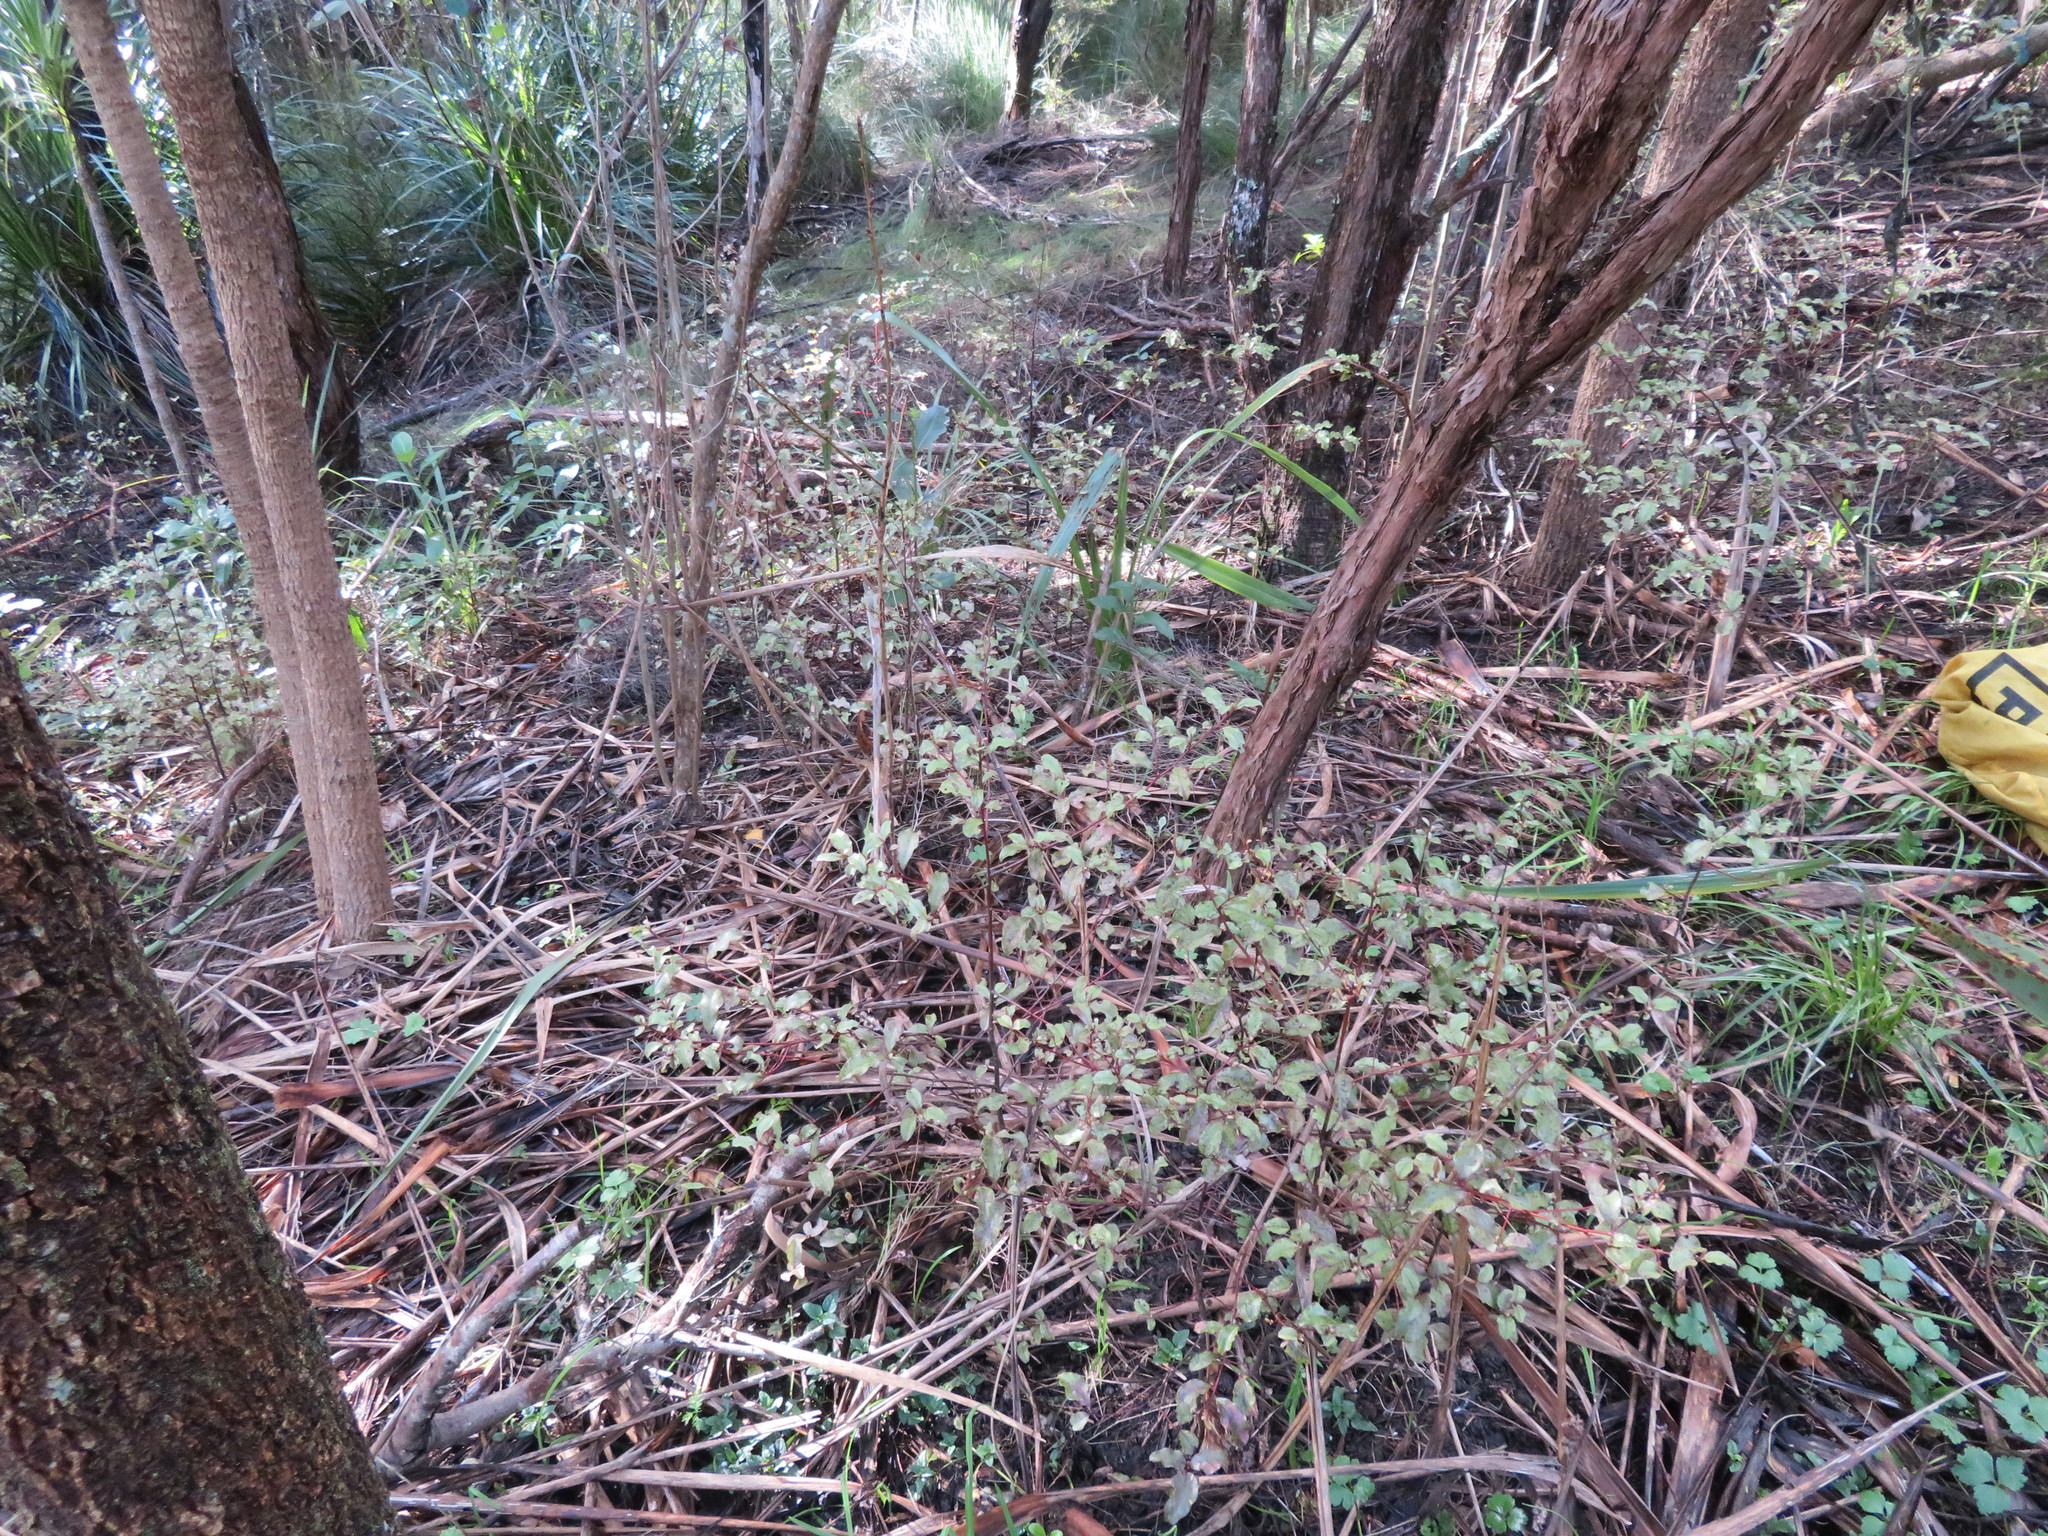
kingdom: Plantae
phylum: Tracheophyta
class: Magnoliopsida
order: Ericales
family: Primulaceae
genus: Myrsine
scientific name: Myrsine australis
